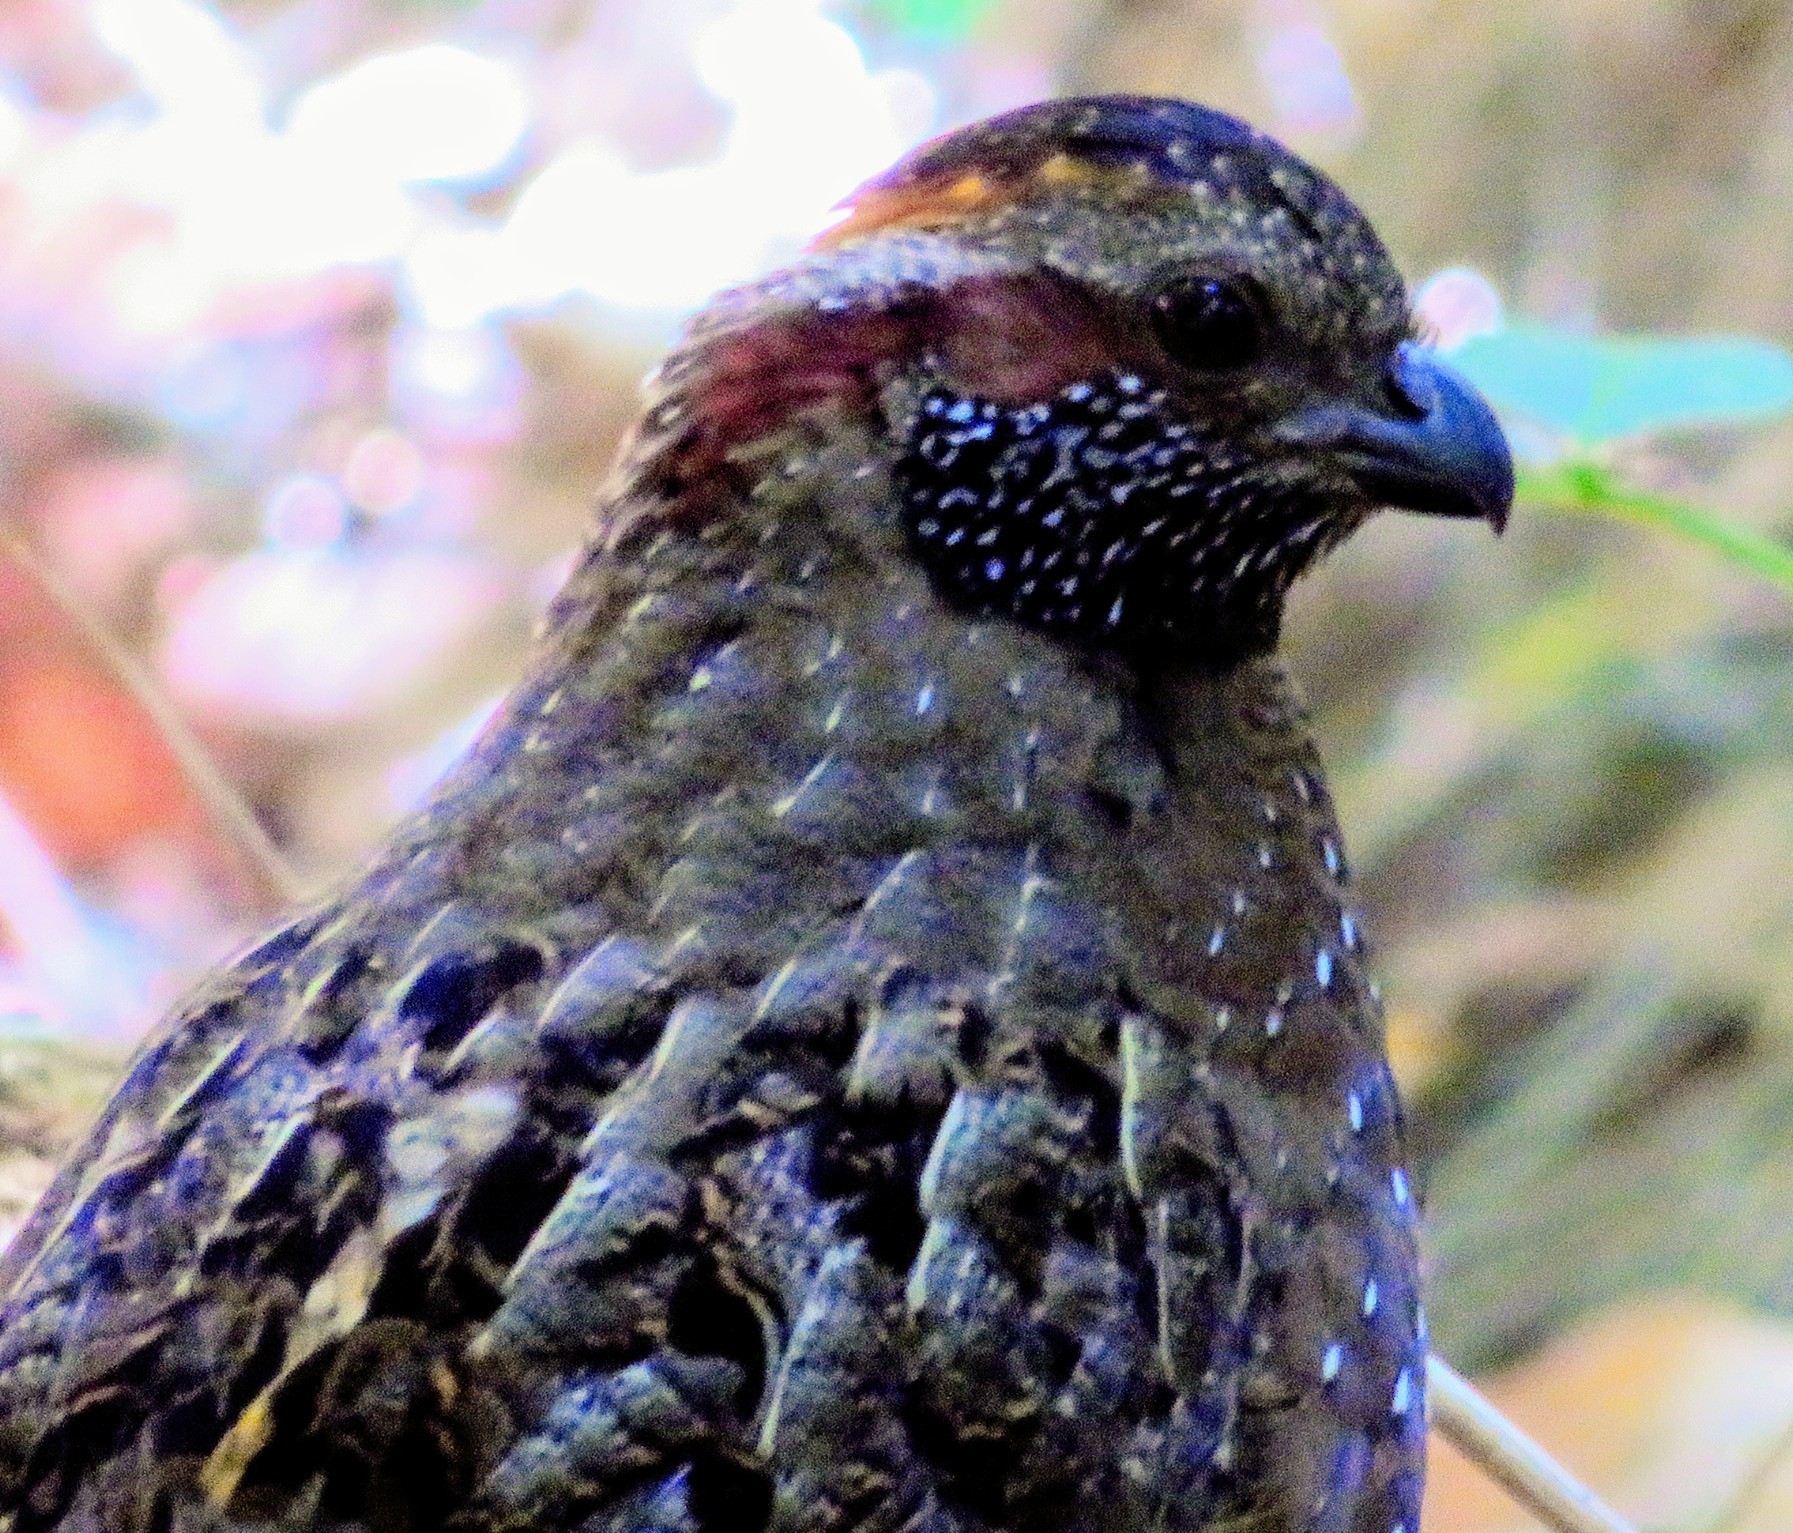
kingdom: Animalia
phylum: Chordata
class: Aves
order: Galliformes
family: Odontophoridae
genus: Odontophorus
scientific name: Odontophorus guttatus
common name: Spotted wood-quail
